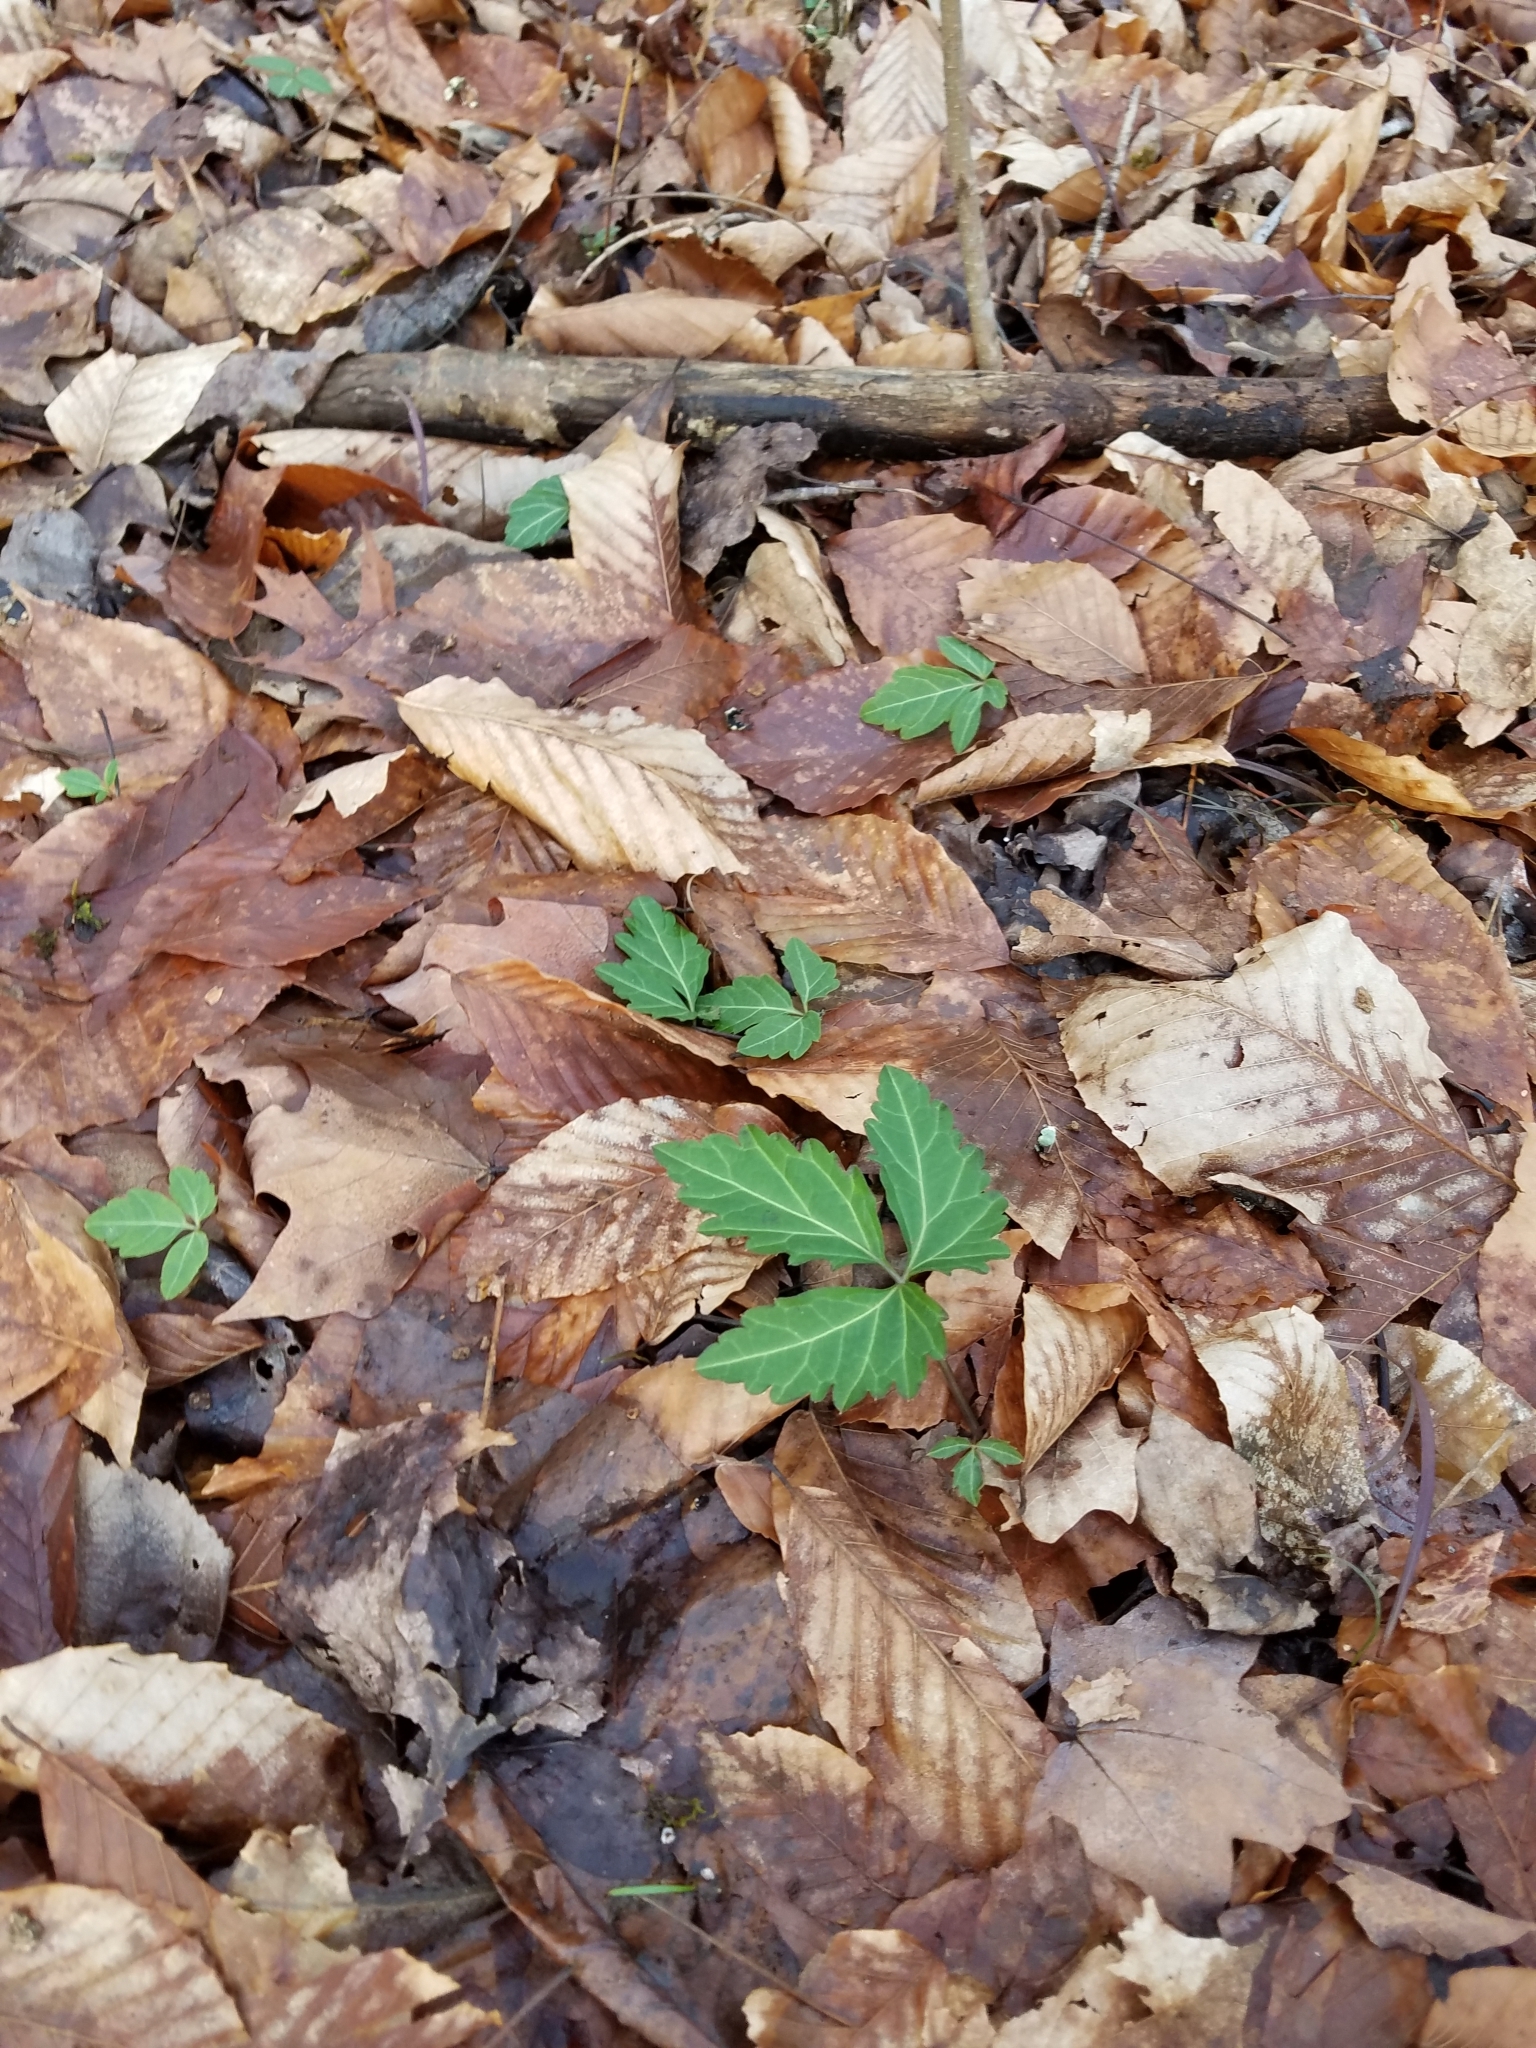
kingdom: Plantae
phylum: Tracheophyta
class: Magnoliopsida
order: Brassicales
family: Brassicaceae
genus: Cardamine
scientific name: Cardamine diphylla
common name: Broad-leaved toothwort
